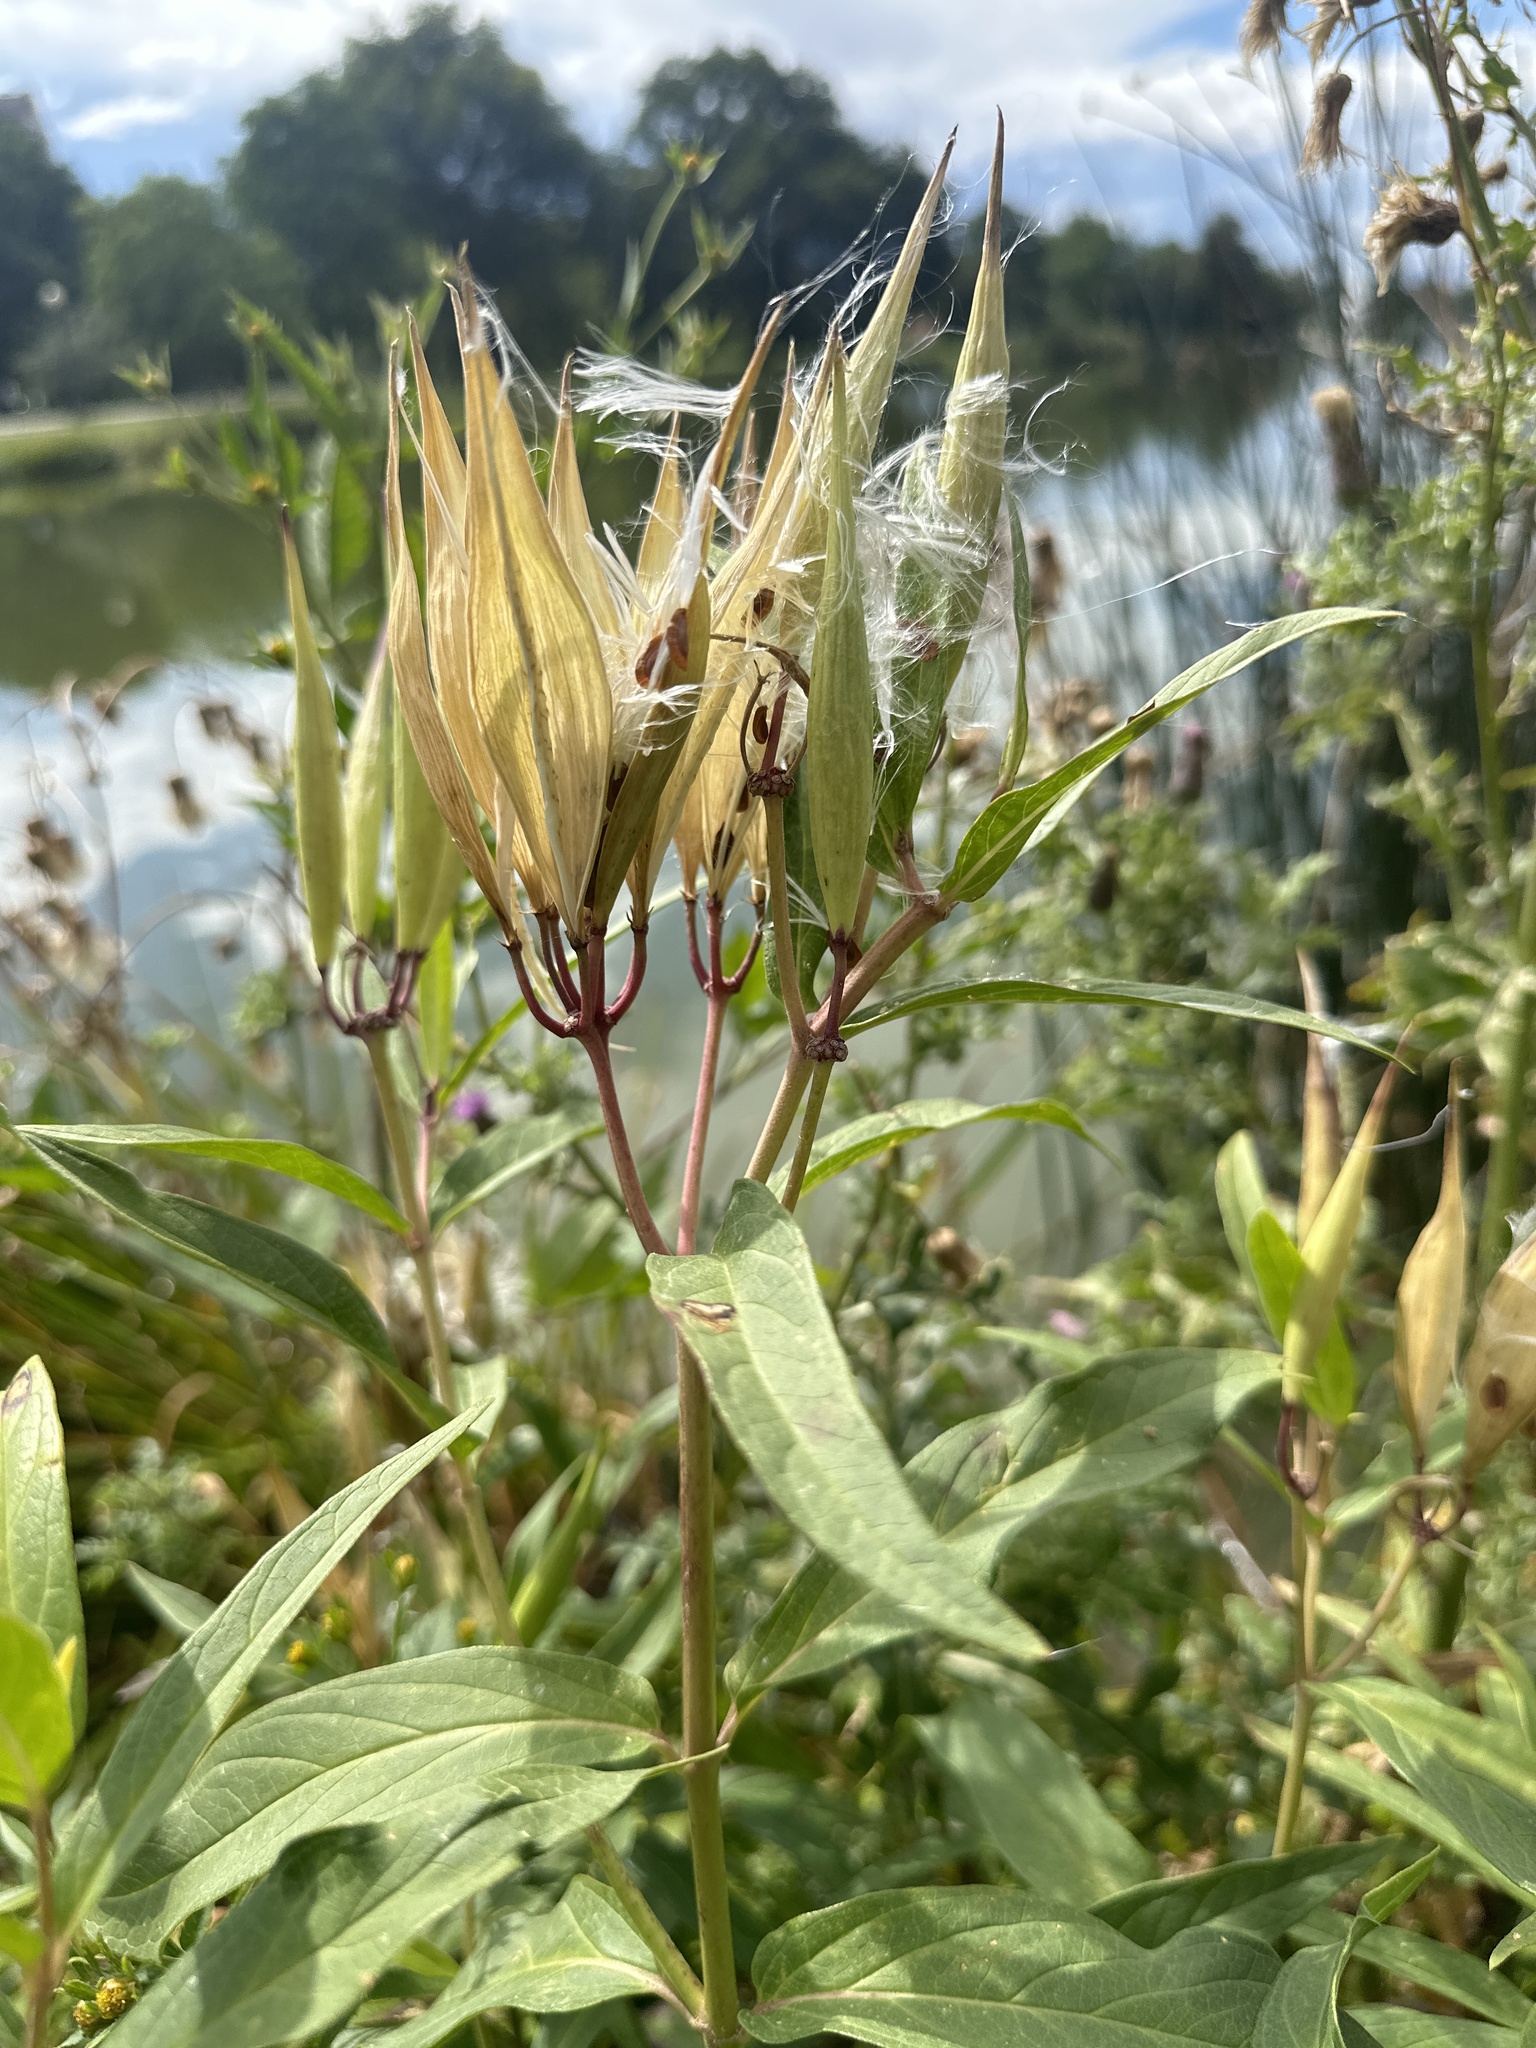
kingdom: Plantae
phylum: Tracheophyta
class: Magnoliopsida
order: Gentianales
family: Apocynaceae
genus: Asclepias
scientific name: Asclepias incarnata
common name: Swamp milkweed
